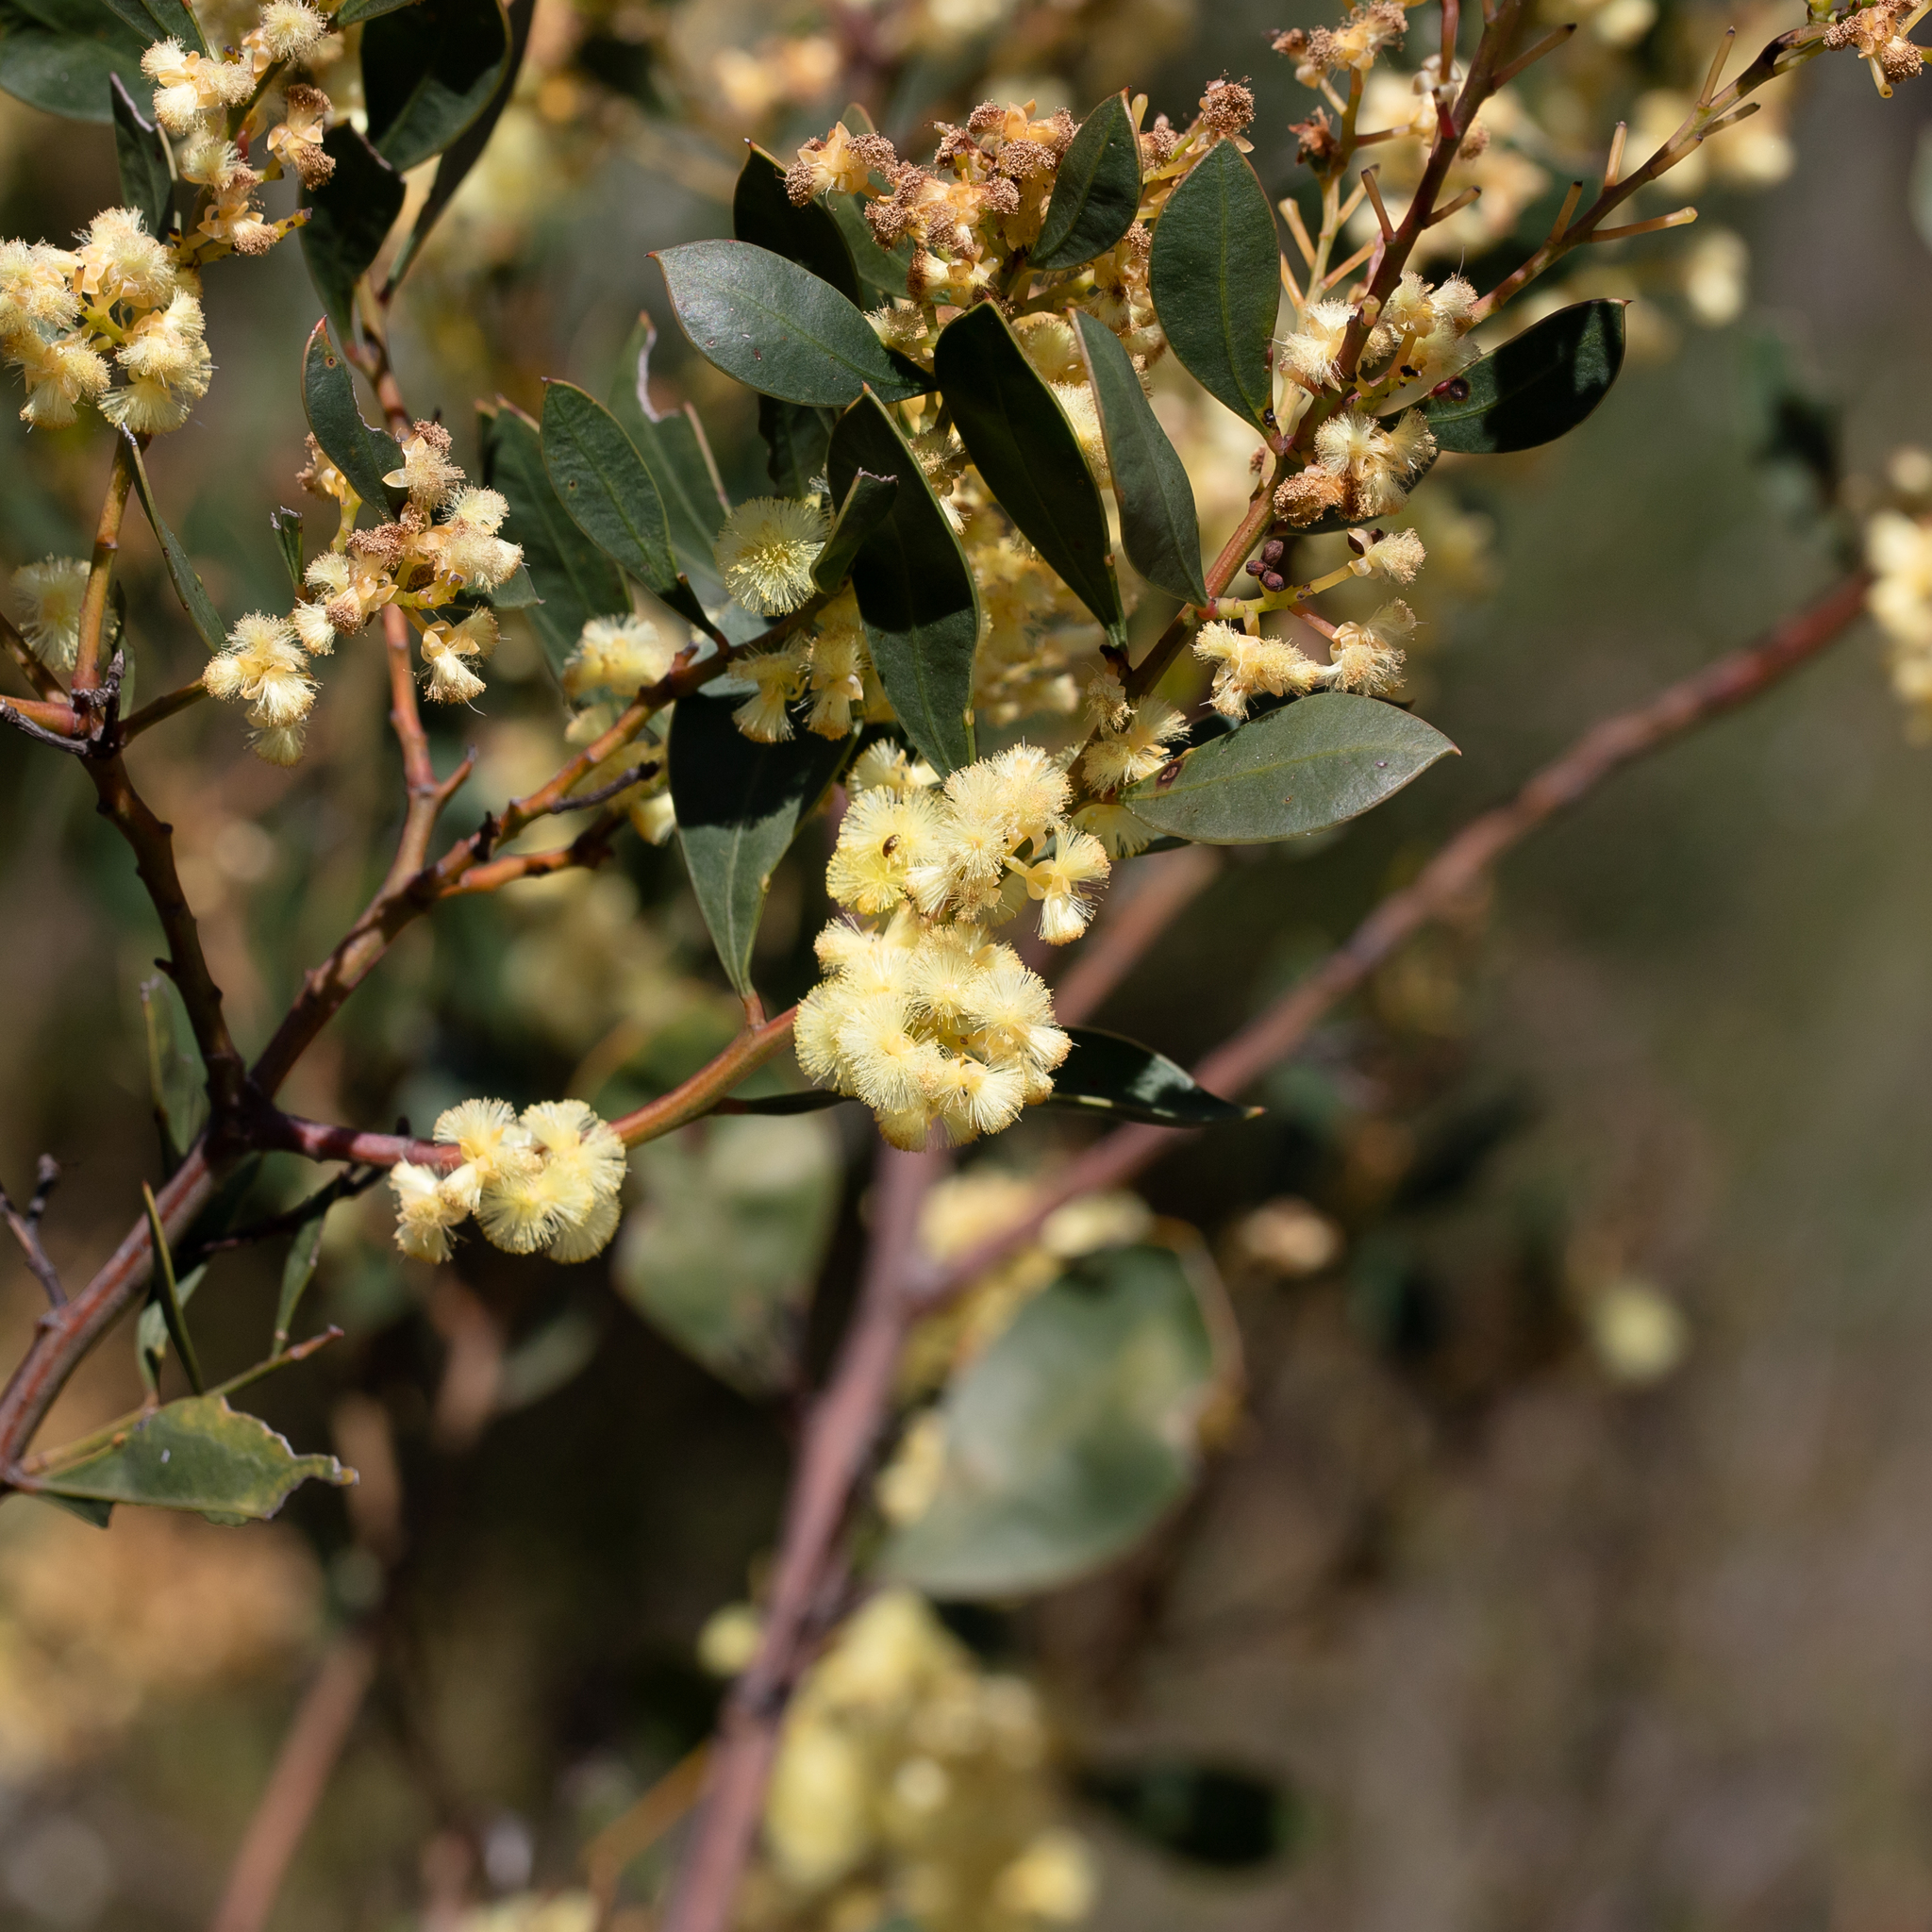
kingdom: Plantae
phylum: Tracheophyta
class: Magnoliopsida
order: Fabales
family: Fabaceae
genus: Acacia
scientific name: Acacia myrtifolia
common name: Myrtle wattle
